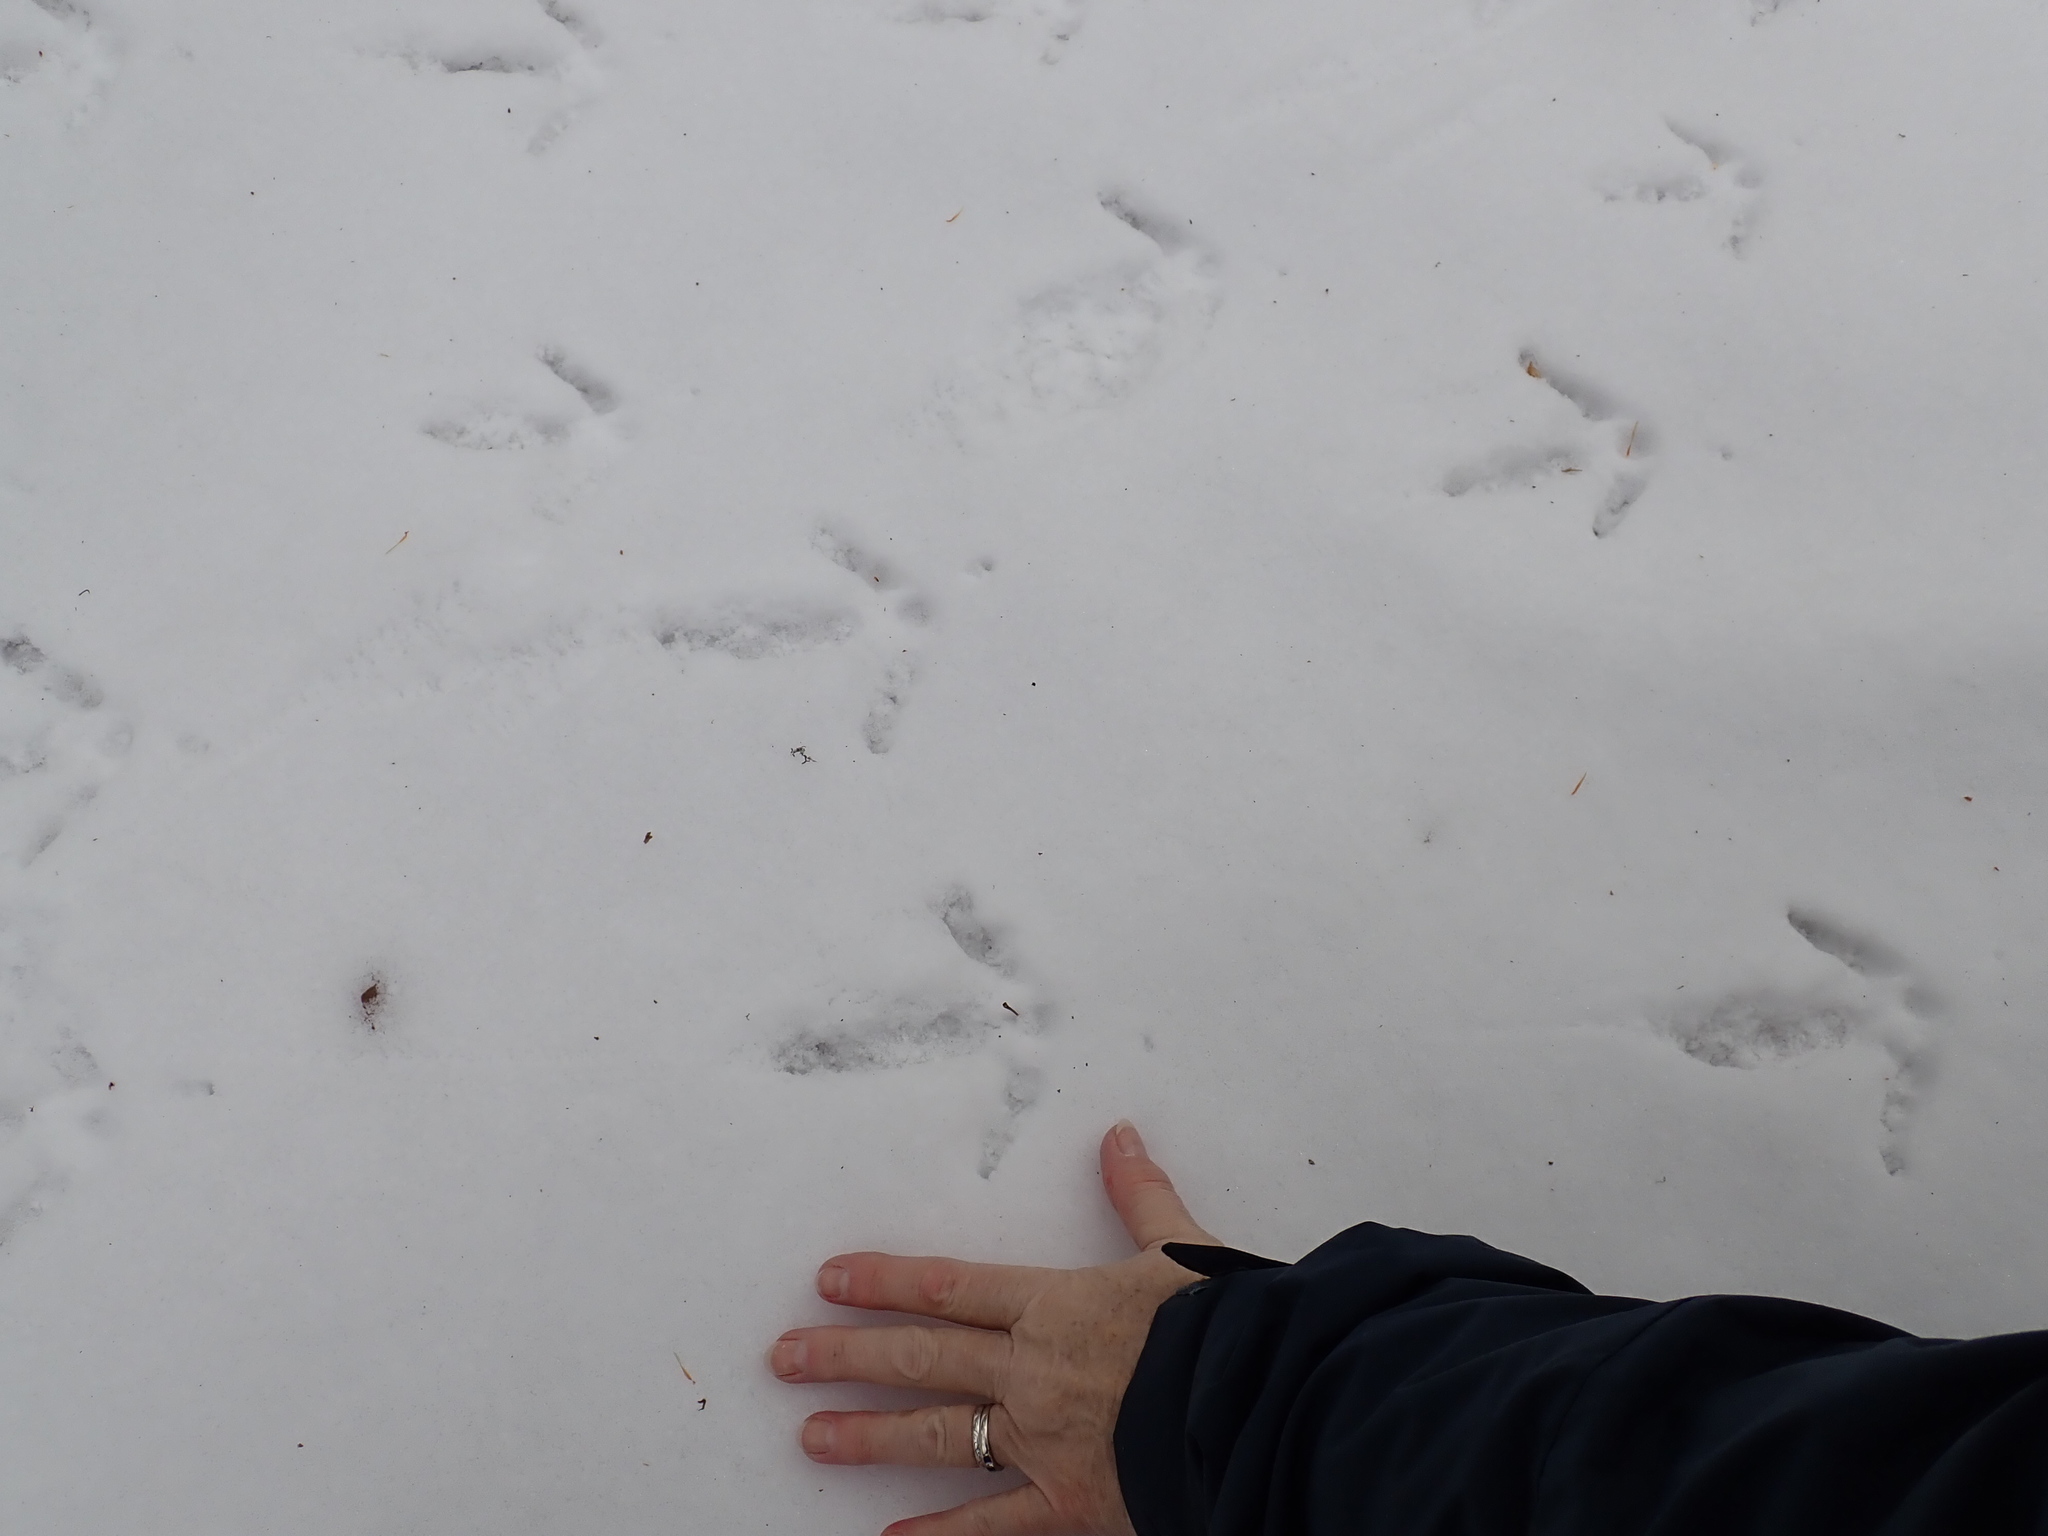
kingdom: Animalia
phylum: Chordata
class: Aves
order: Galliformes
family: Phasianidae
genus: Meleagris
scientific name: Meleagris gallopavo
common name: Wild turkey
